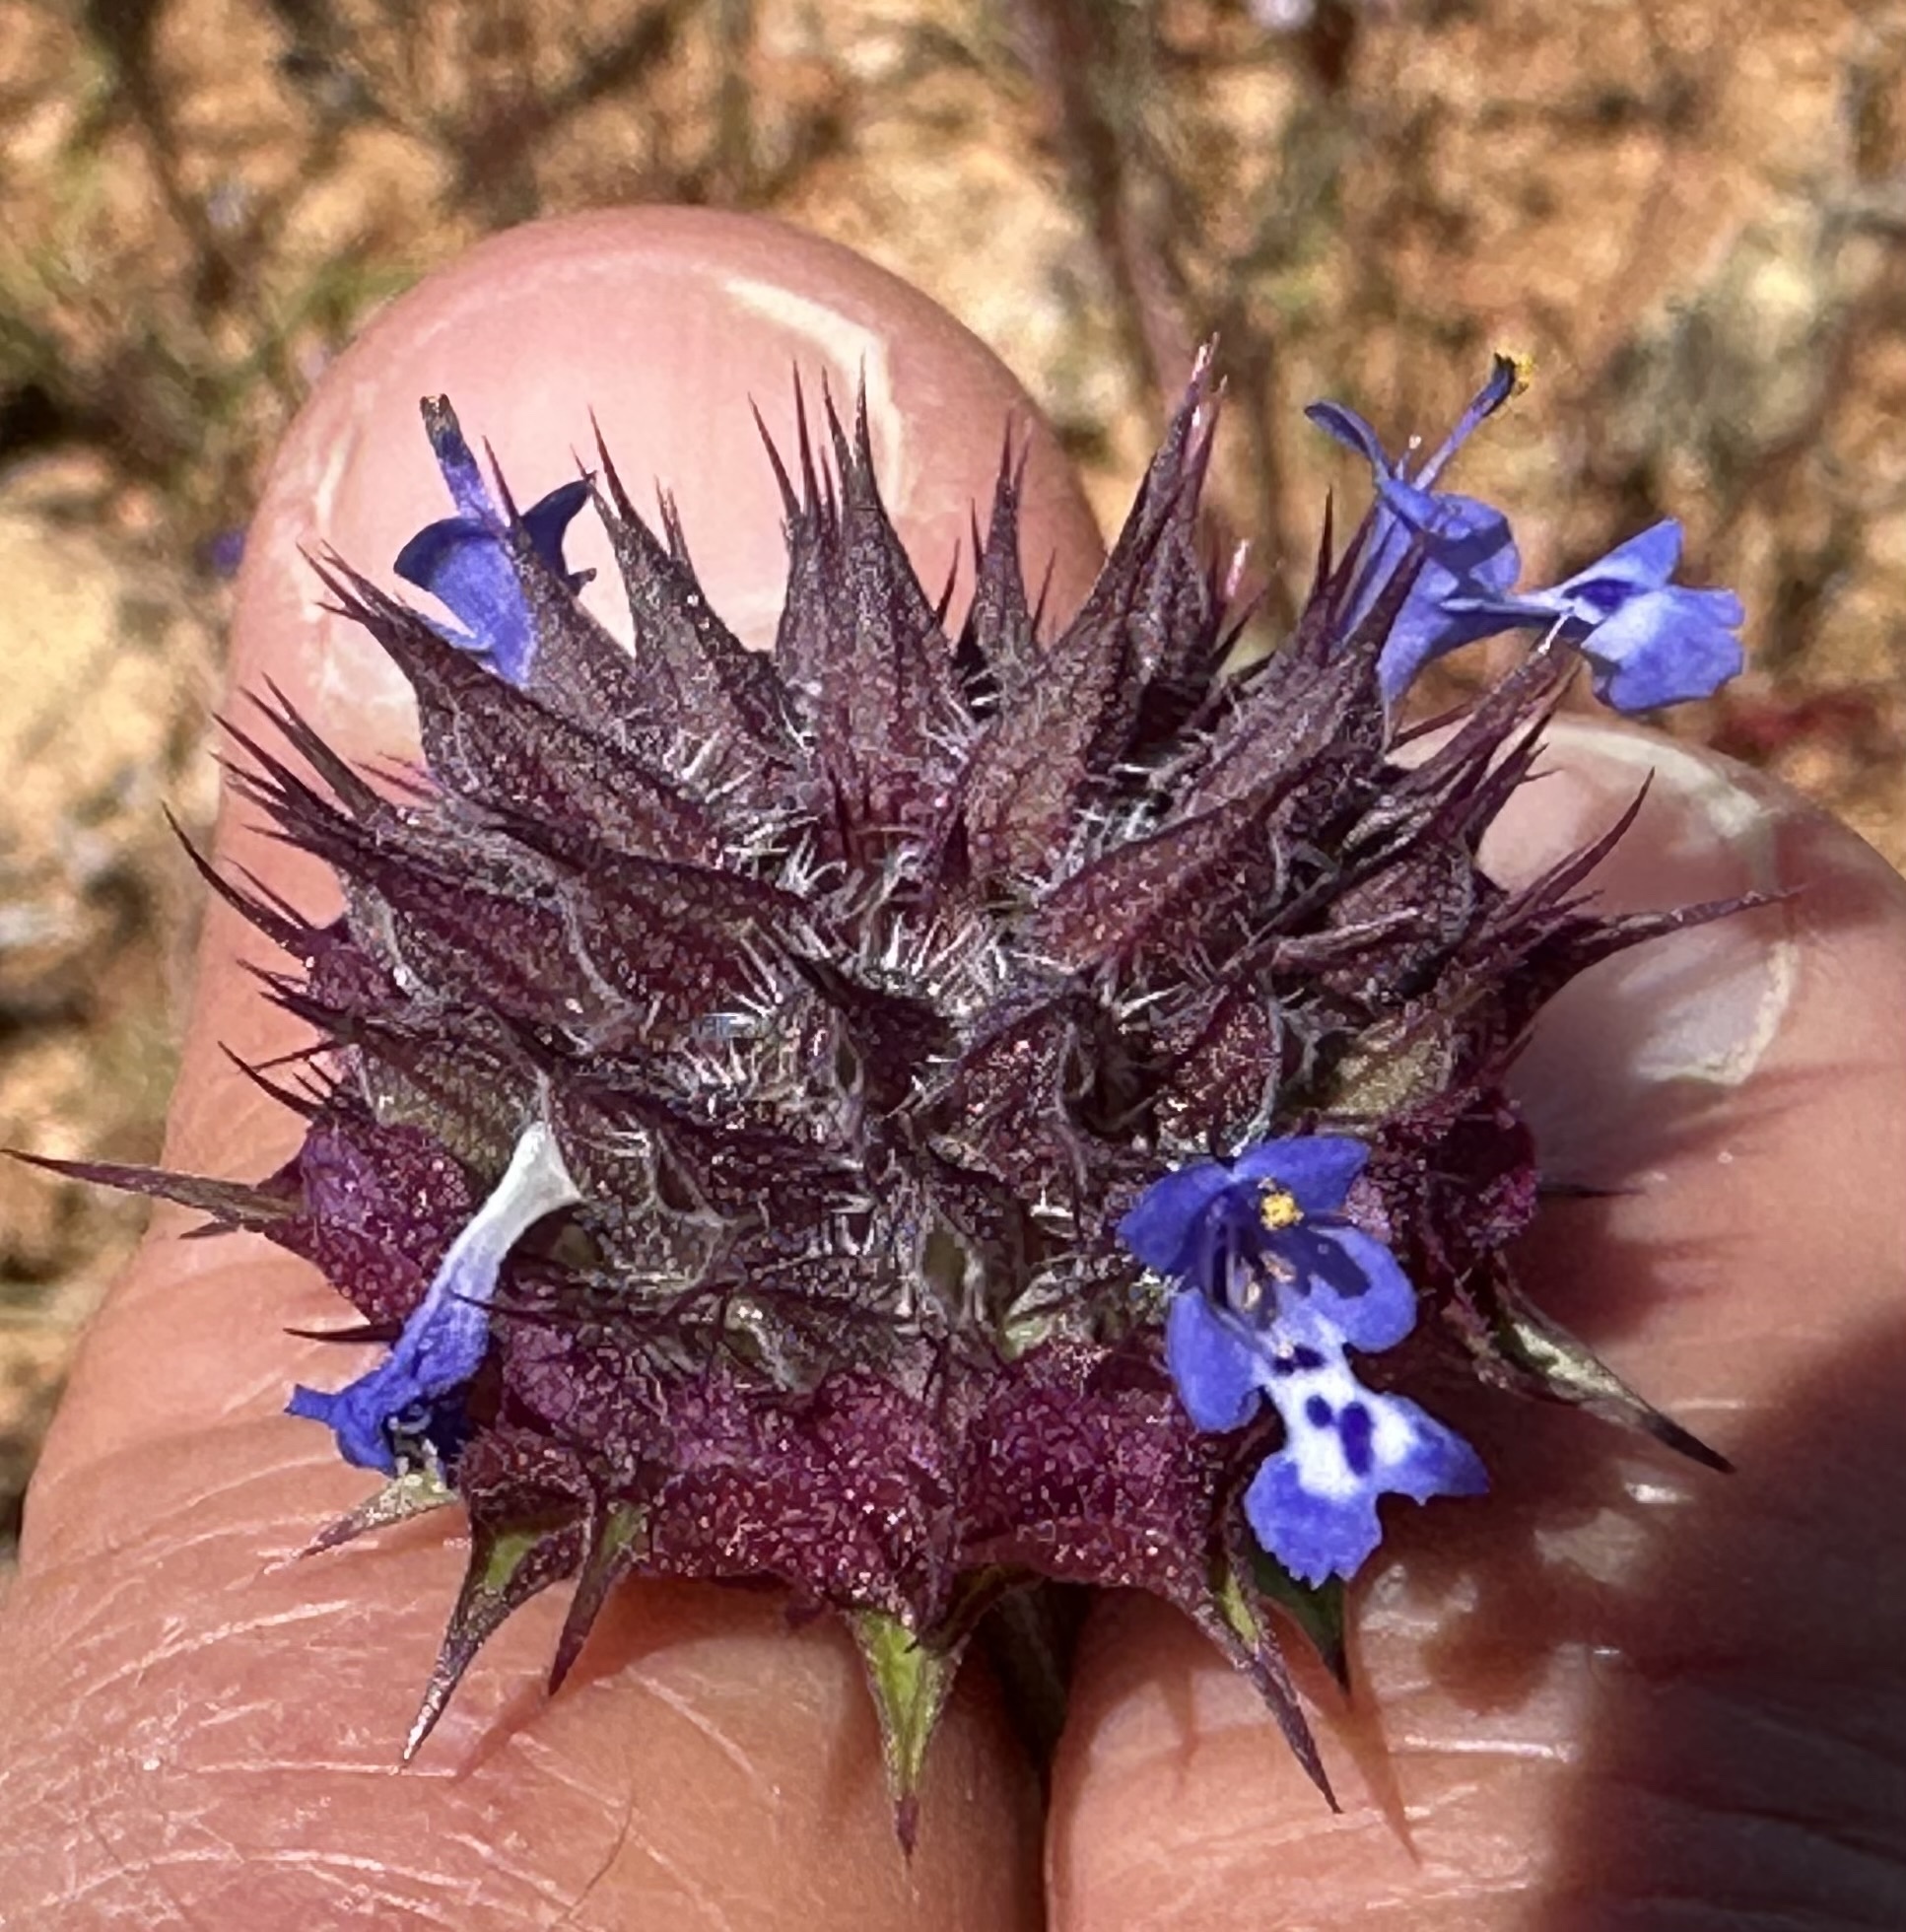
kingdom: Plantae
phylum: Tracheophyta
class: Magnoliopsida
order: Lamiales
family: Lamiaceae
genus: Salvia
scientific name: Salvia columbariae
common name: Chia
